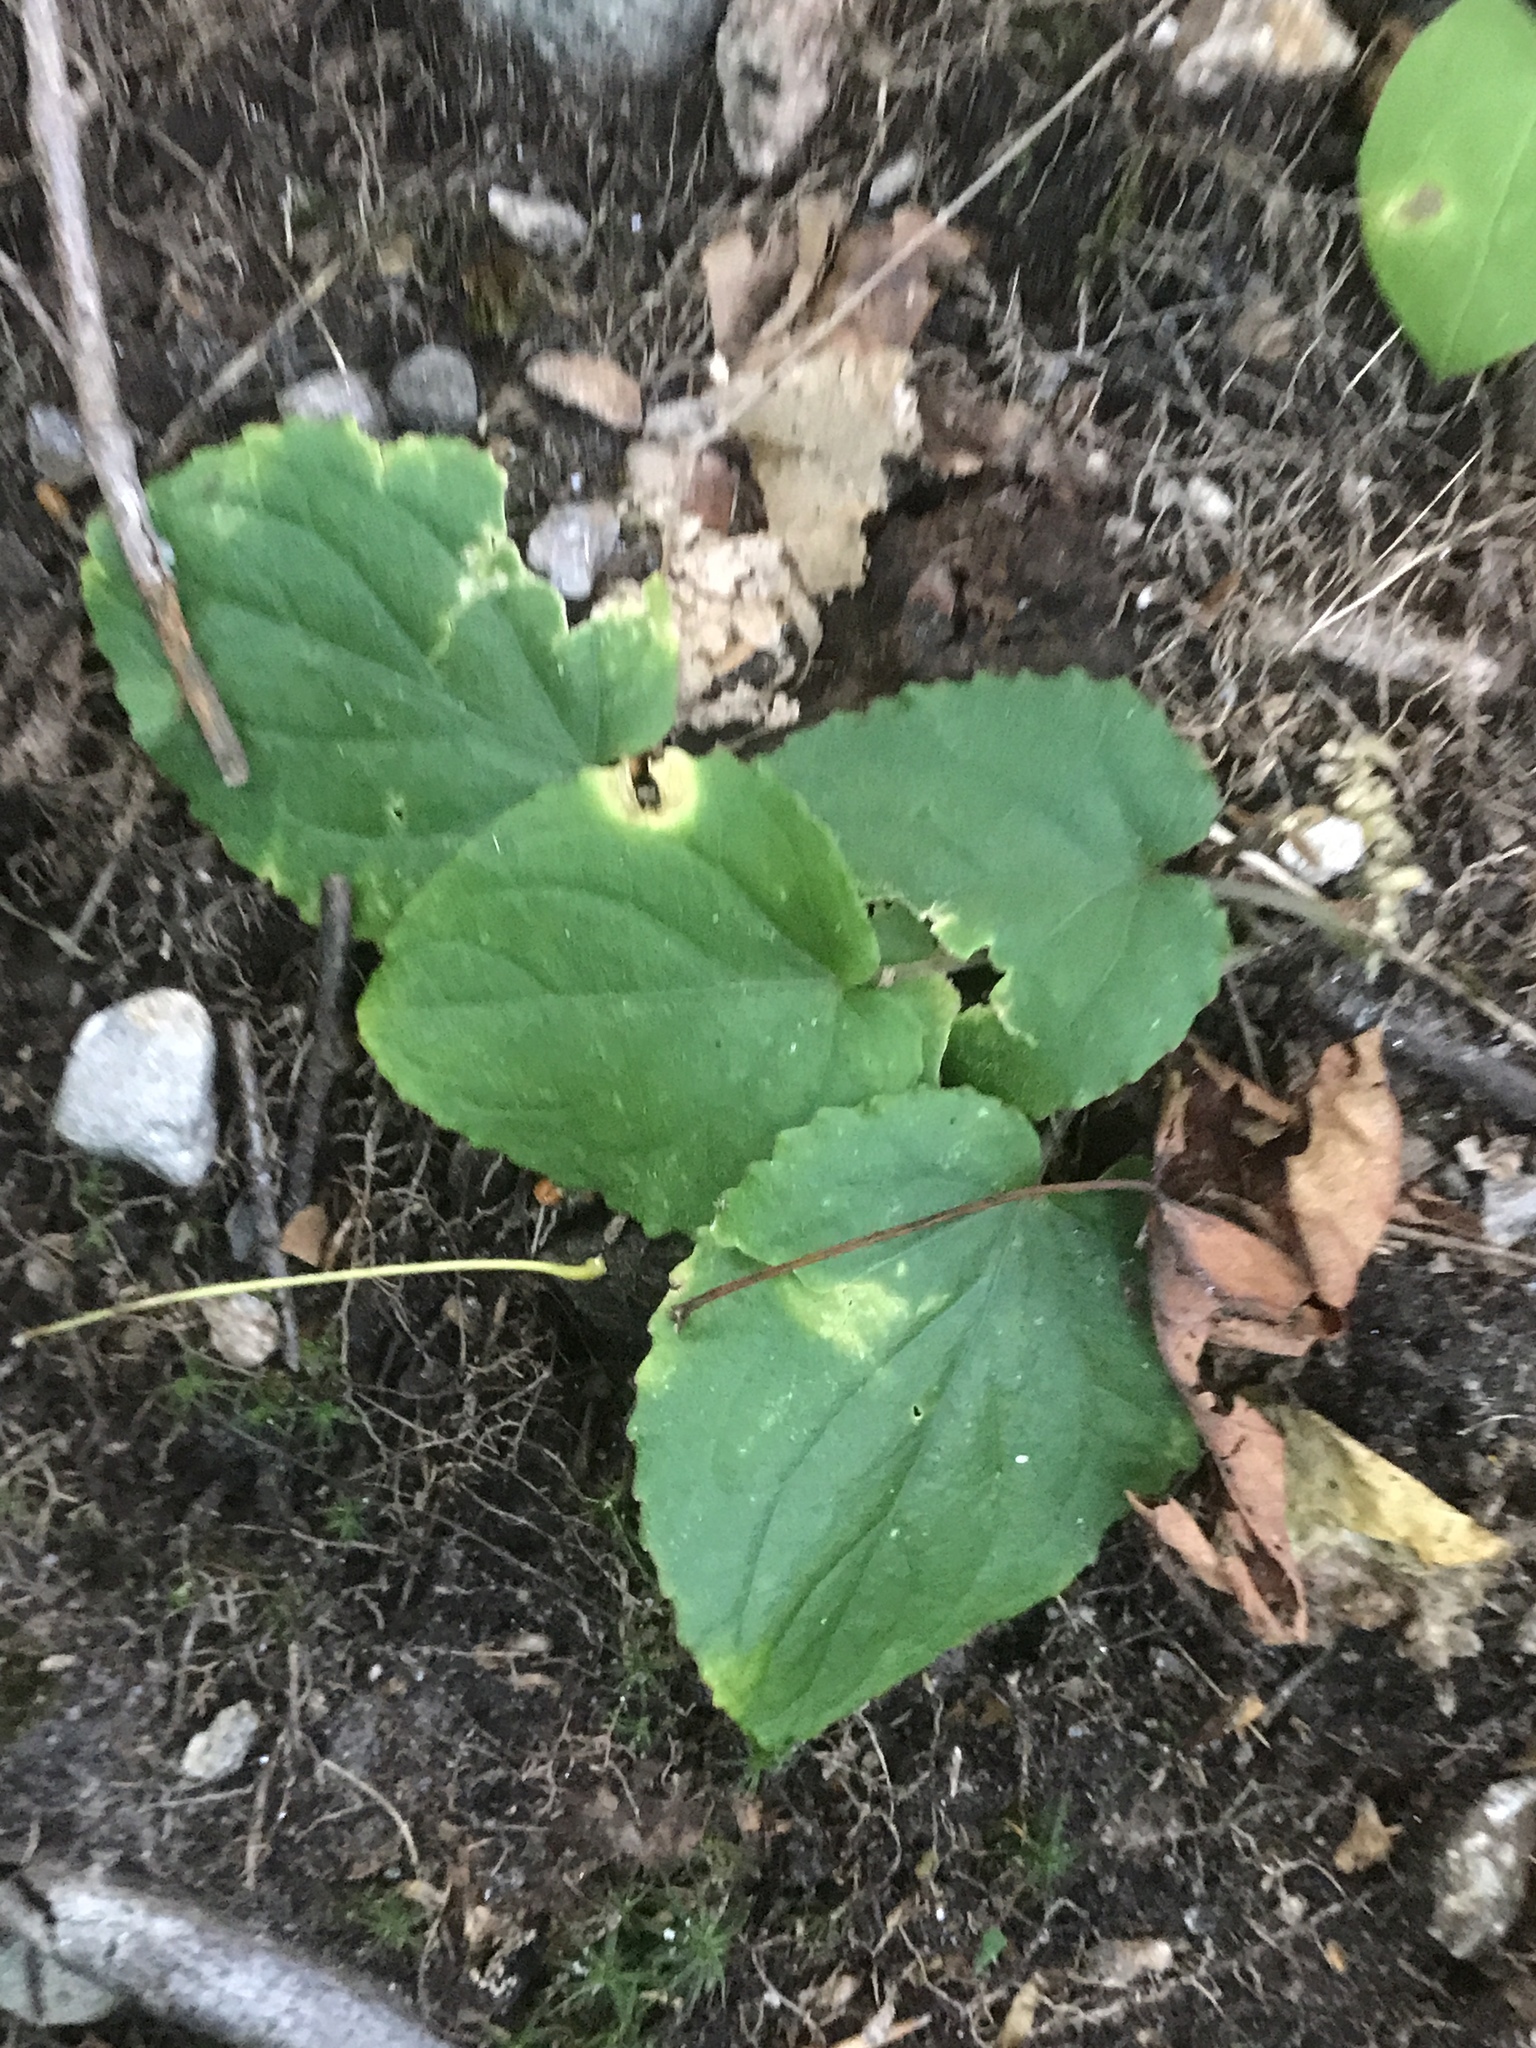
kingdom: Plantae
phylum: Tracheophyta
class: Magnoliopsida
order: Malpighiales
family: Violaceae
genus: Viola
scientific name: Viola rotundifolia
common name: Early yellow violet
